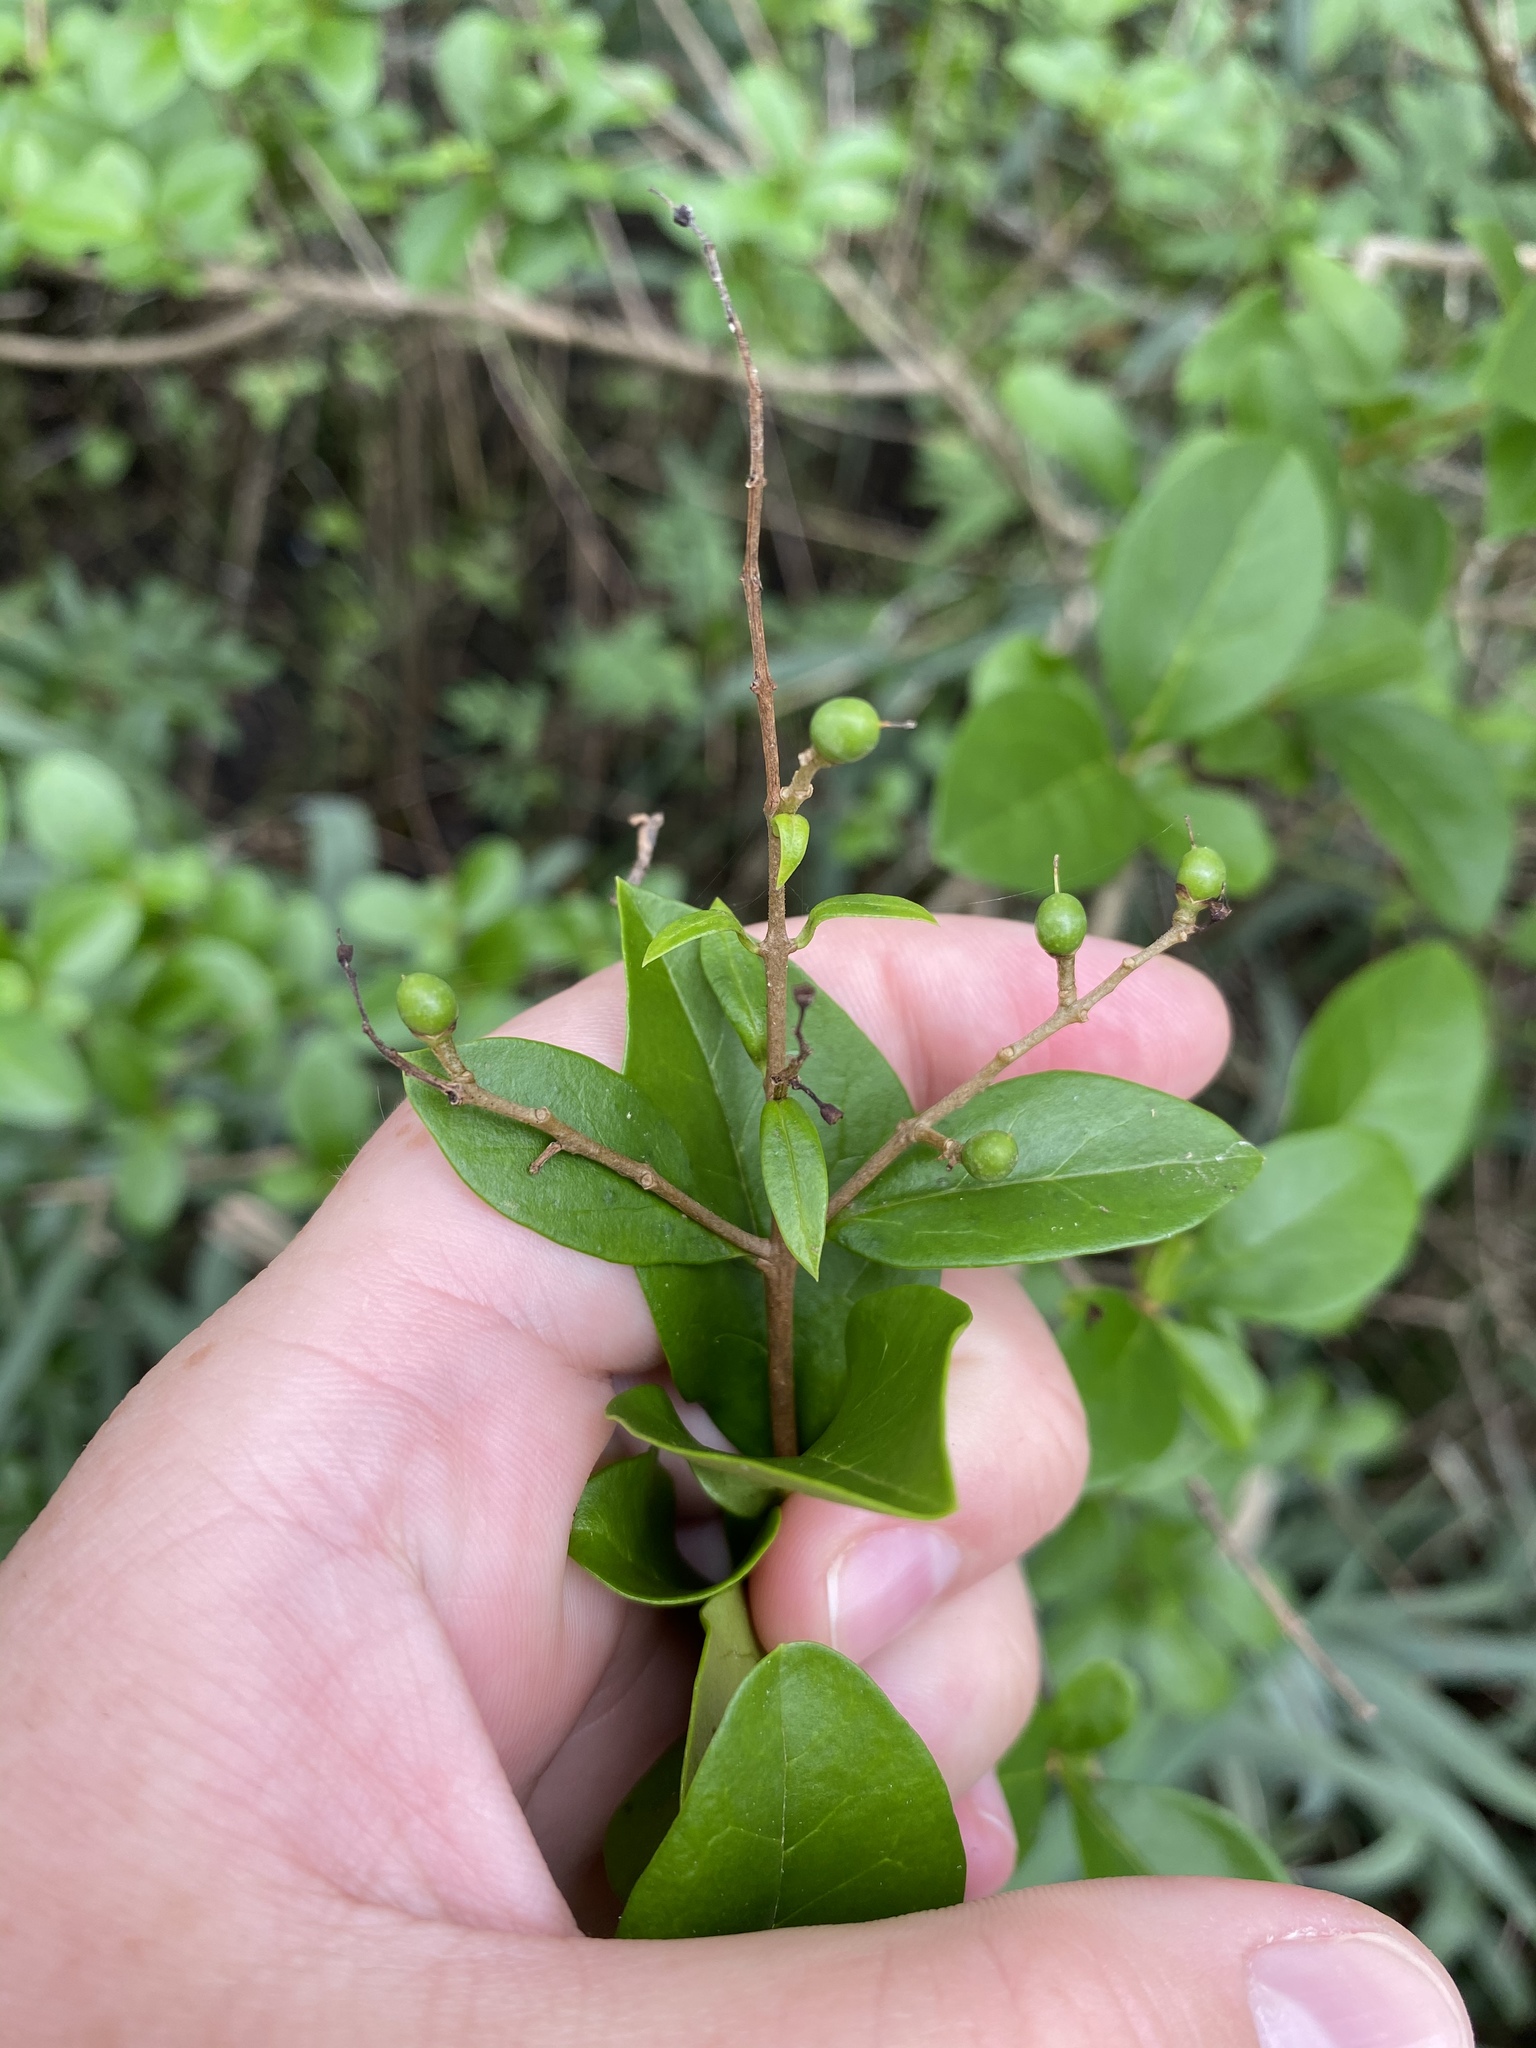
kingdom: Plantae
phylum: Tracheophyta
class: Magnoliopsida
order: Lamiales
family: Oleaceae
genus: Ligustrum
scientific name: Ligustrum ovalifolium
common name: California privet
